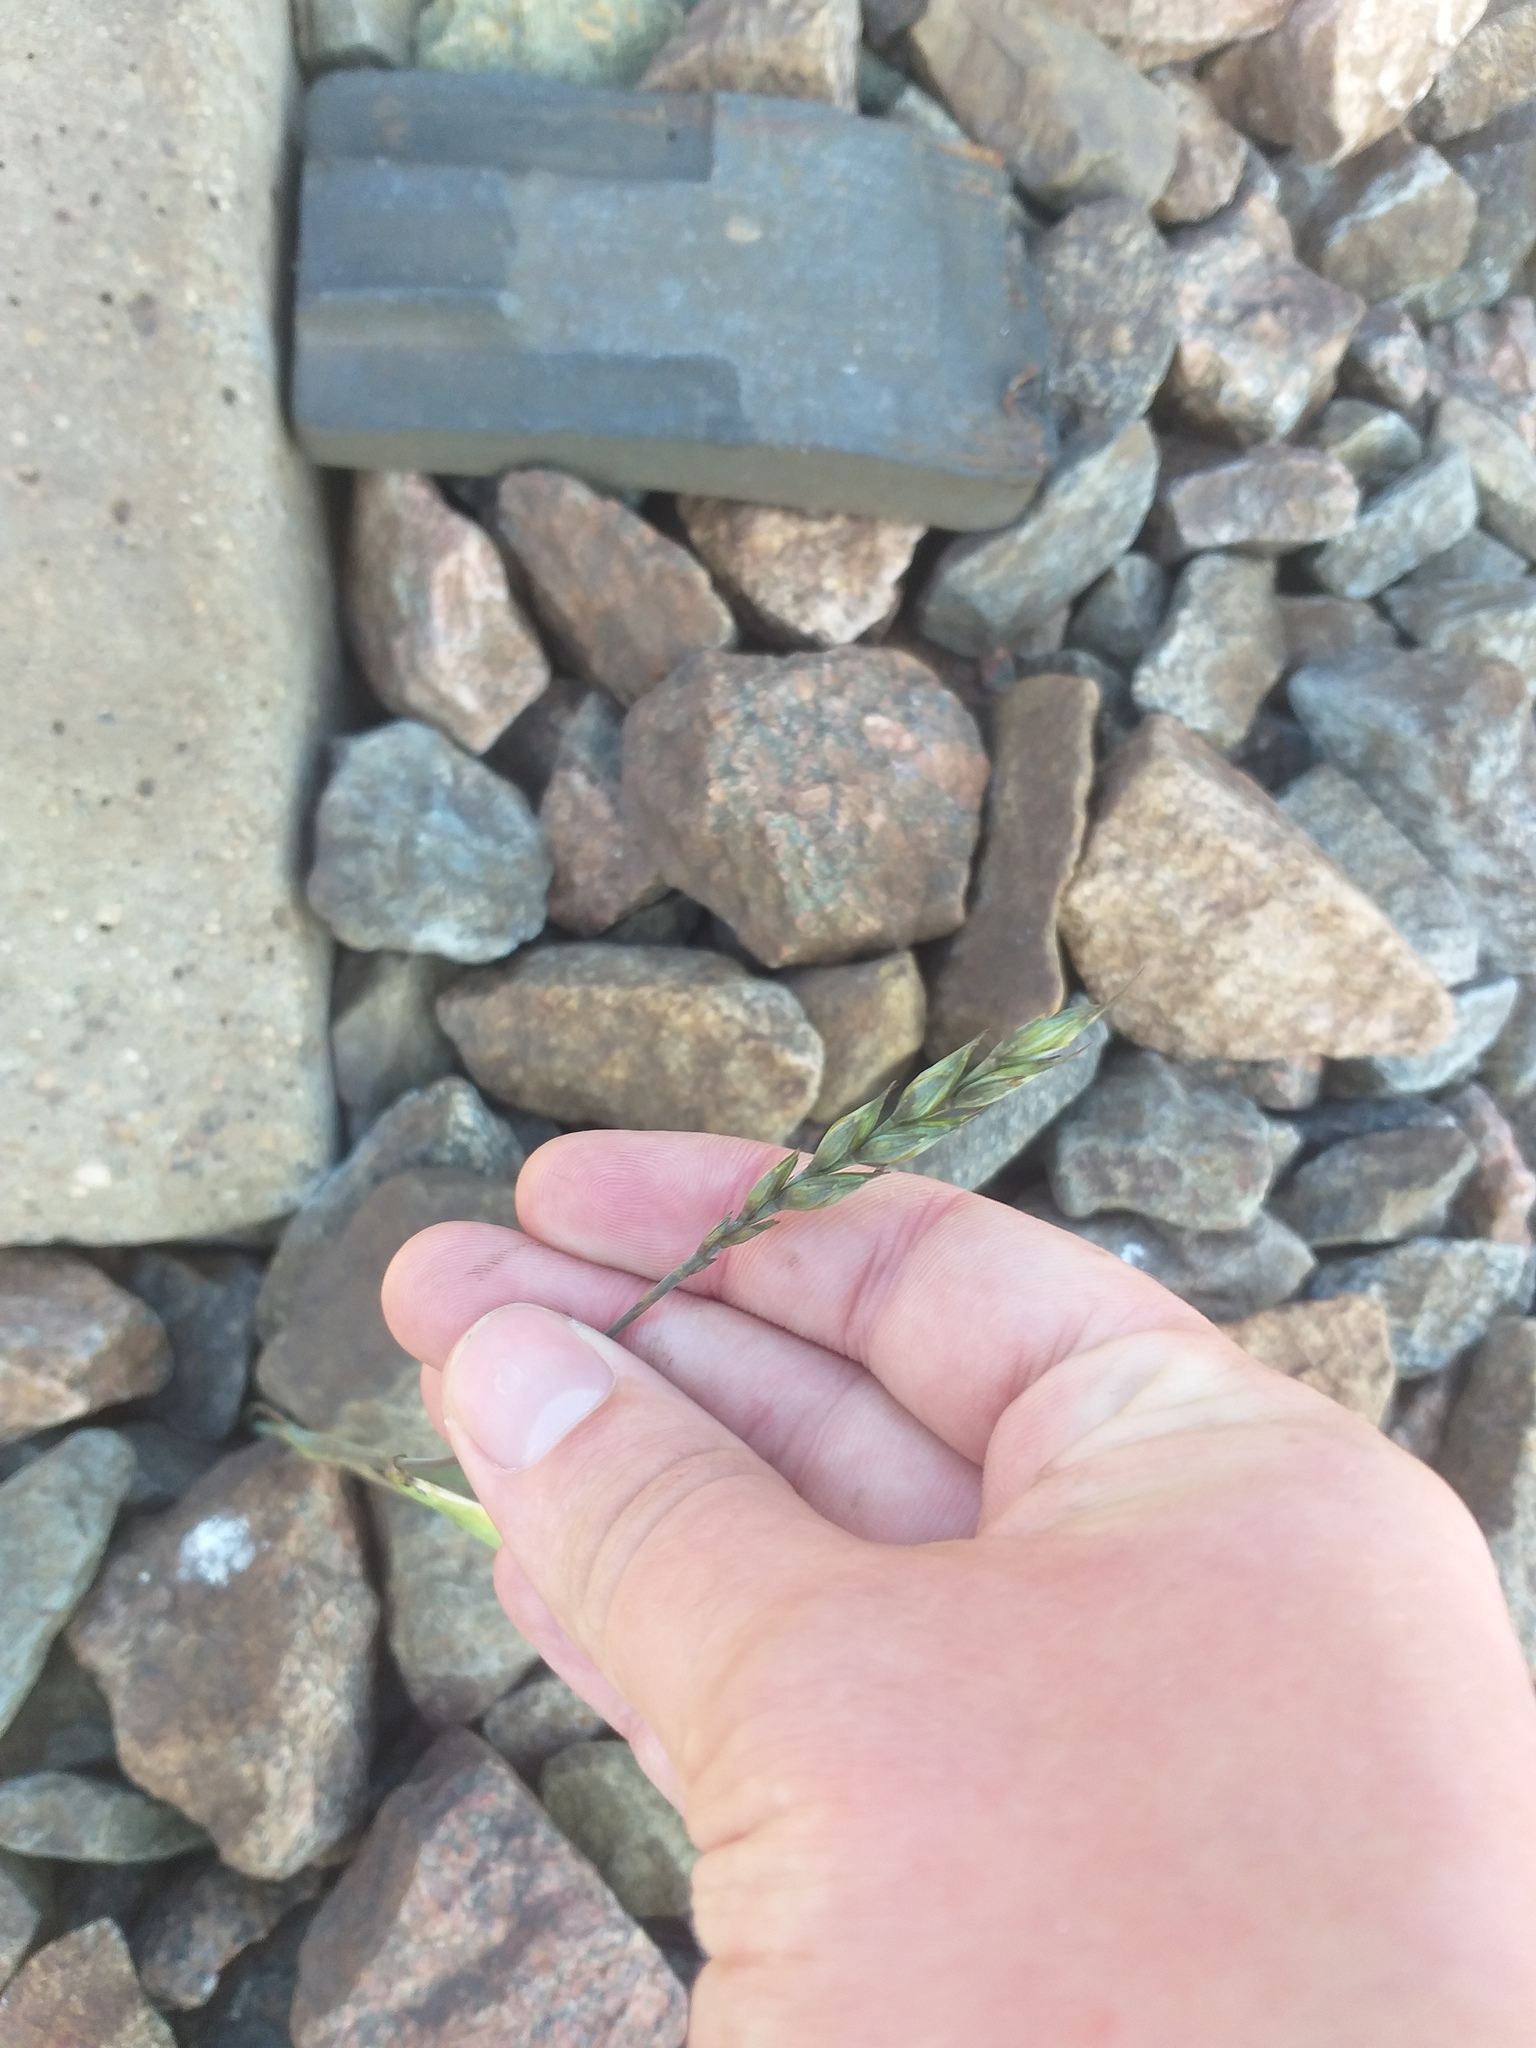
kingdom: Plantae
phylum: Tracheophyta
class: Liliopsida
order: Poales
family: Poaceae
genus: Triticum
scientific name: Triticum aestivum
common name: Common wheat
